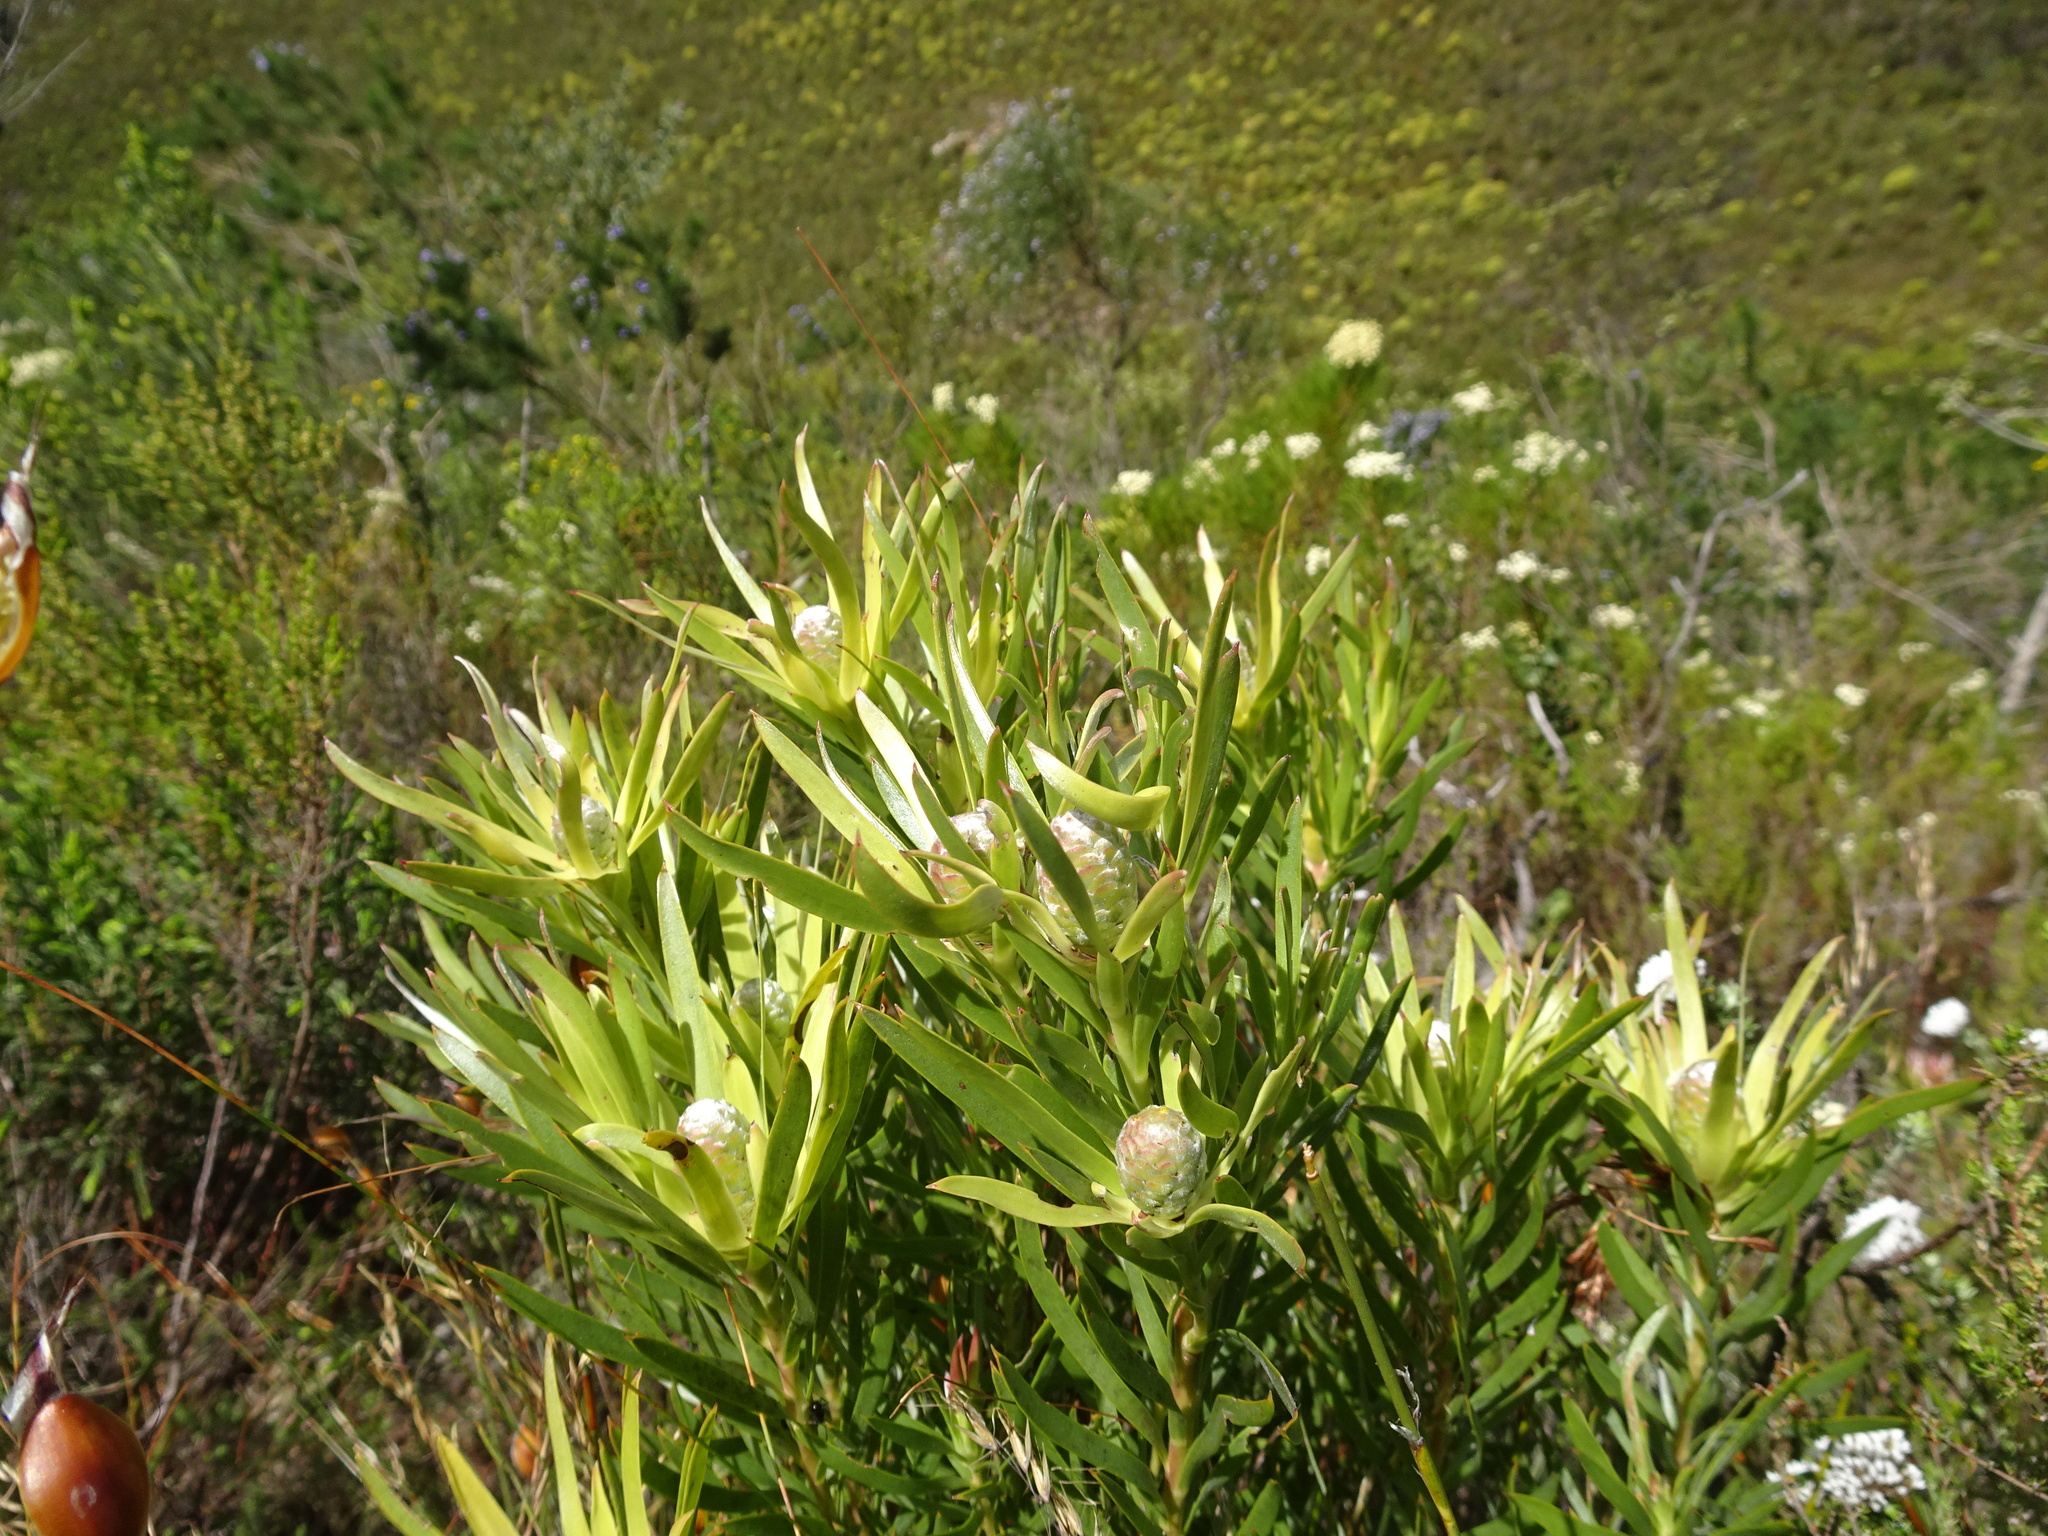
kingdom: Plantae
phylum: Tracheophyta
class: Magnoliopsida
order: Proteales
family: Proteaceae
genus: Leucadendron
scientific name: Leucadendron xanthoconus
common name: Sickle-leaf conebush
